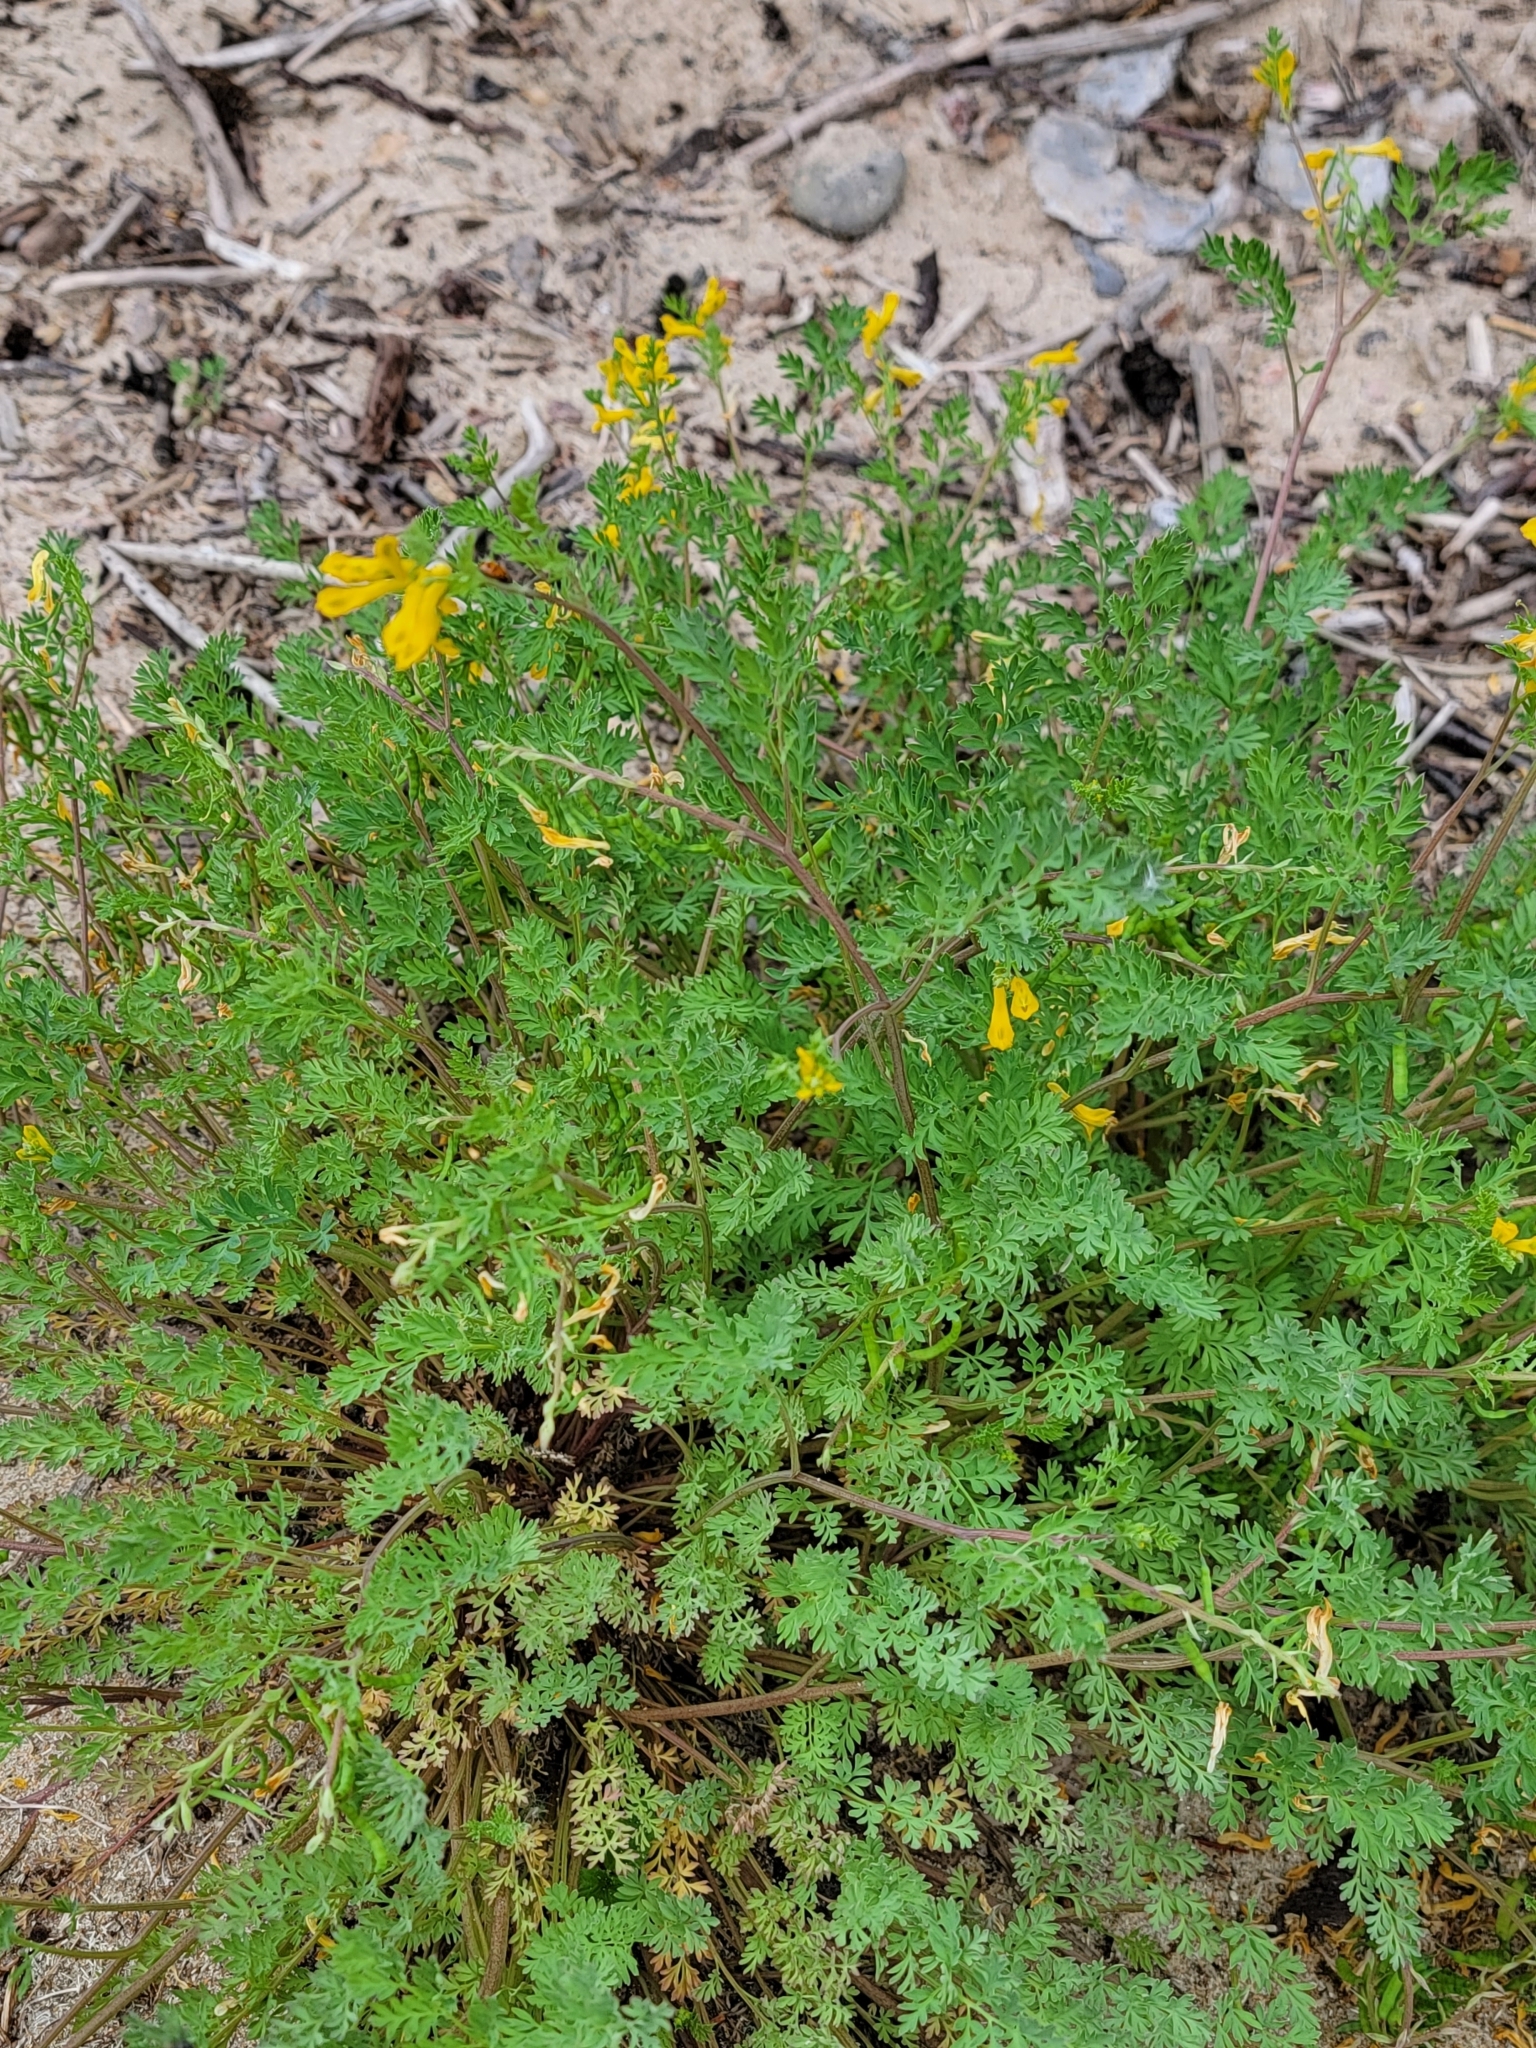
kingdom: Plantae
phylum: Tracheophyta
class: Magnoliopsida
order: Ranunculales
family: Papaveraceae
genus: Corydalis
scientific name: Corydalis aurea
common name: Golden corydalis
